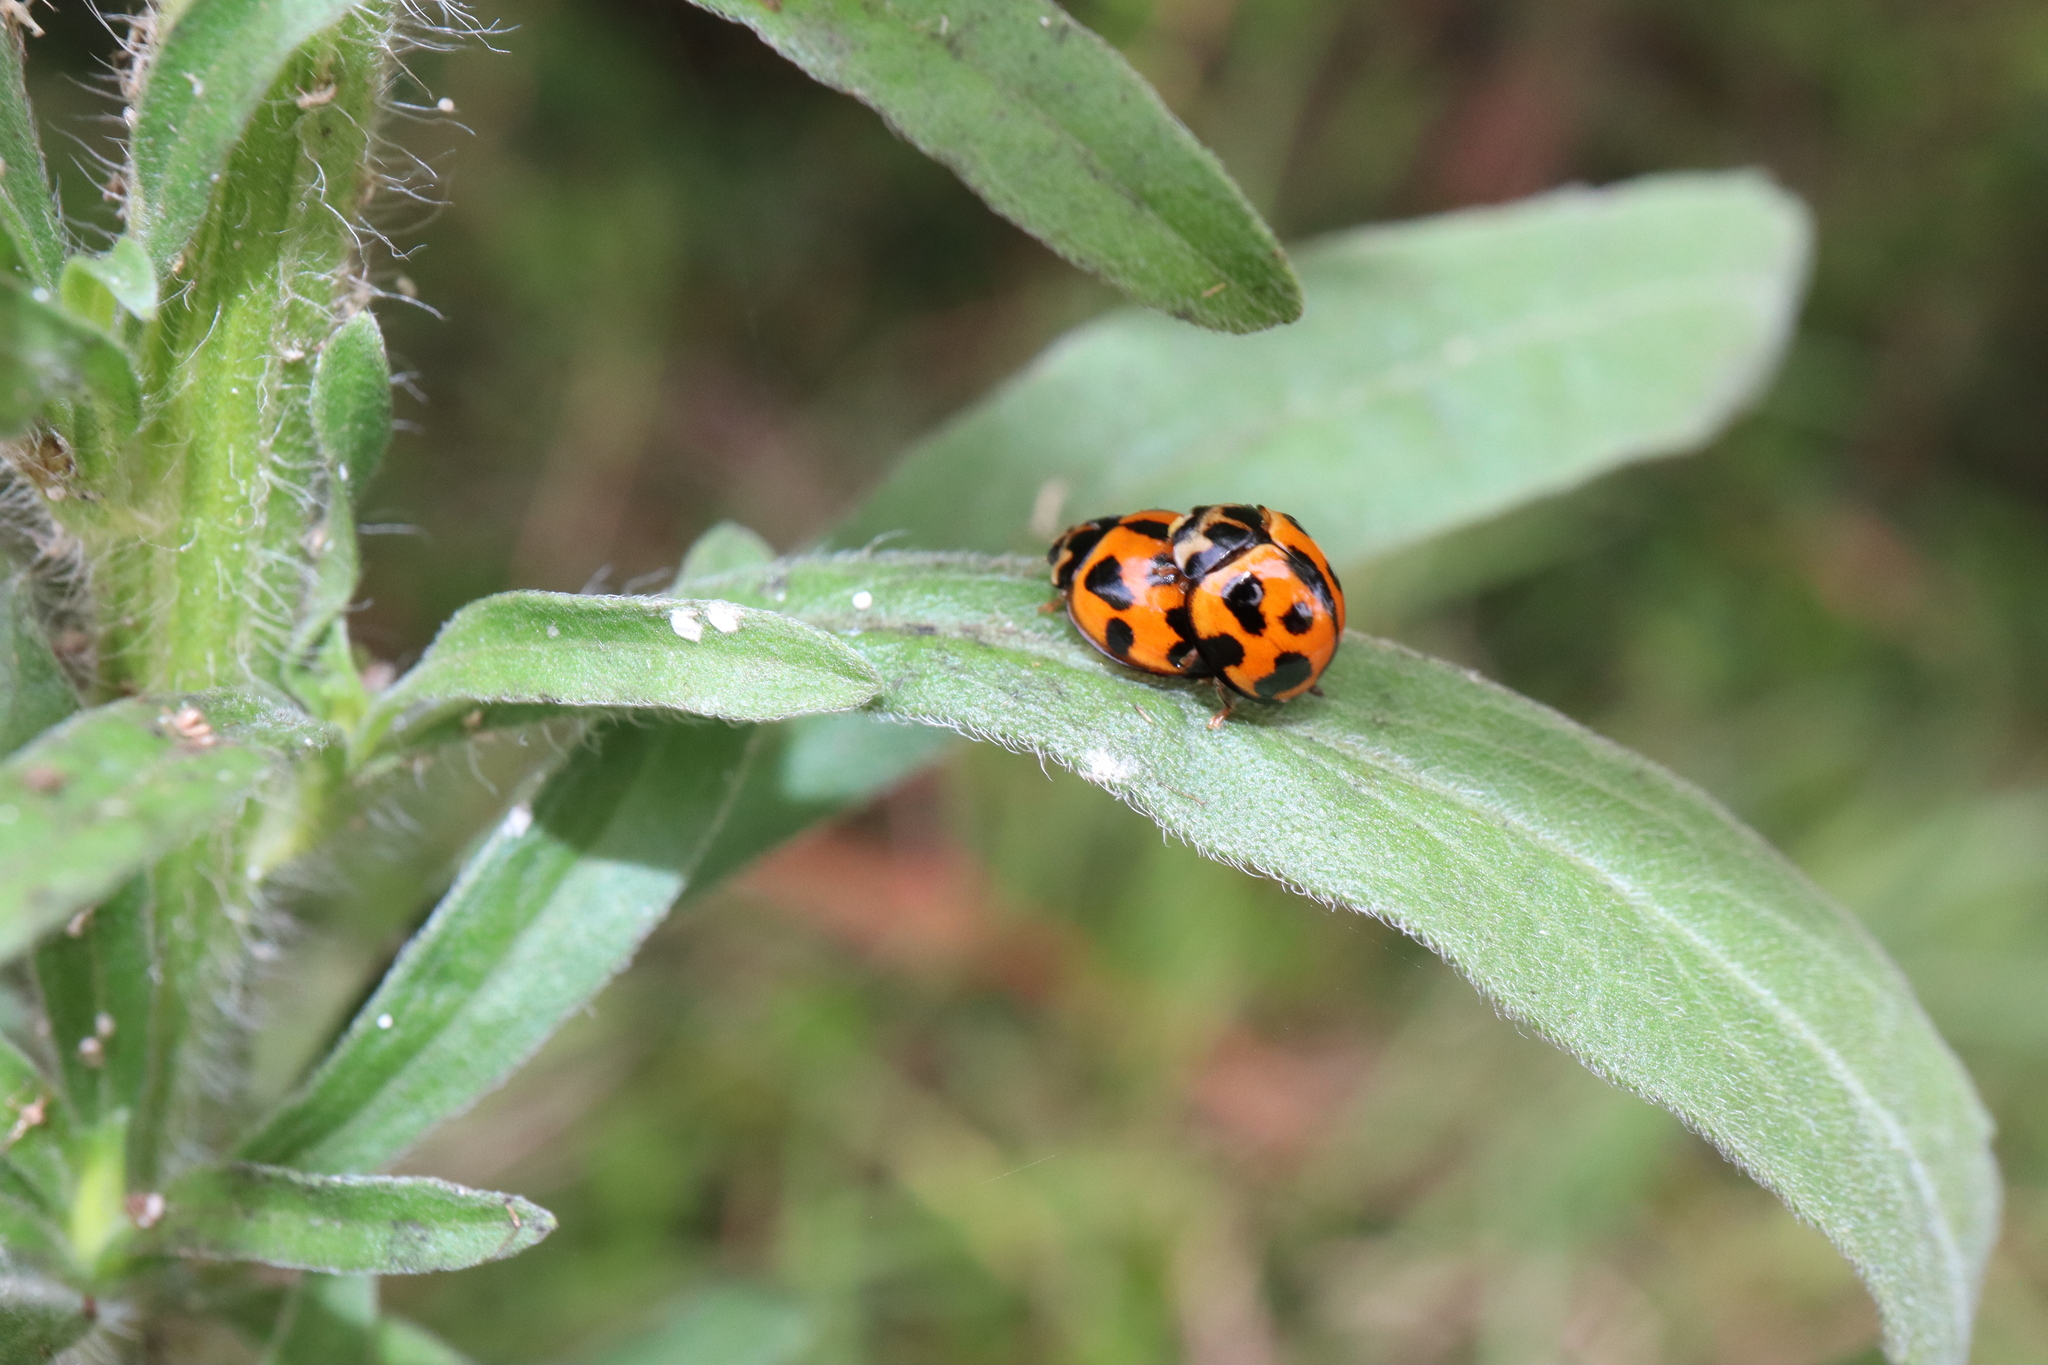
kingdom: Animalia
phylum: Arthropoda
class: Insecta
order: Coleoptera
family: Coccinellidae
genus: Coelophora
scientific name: Coelophora inaequalis
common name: Common australian lady beetle
